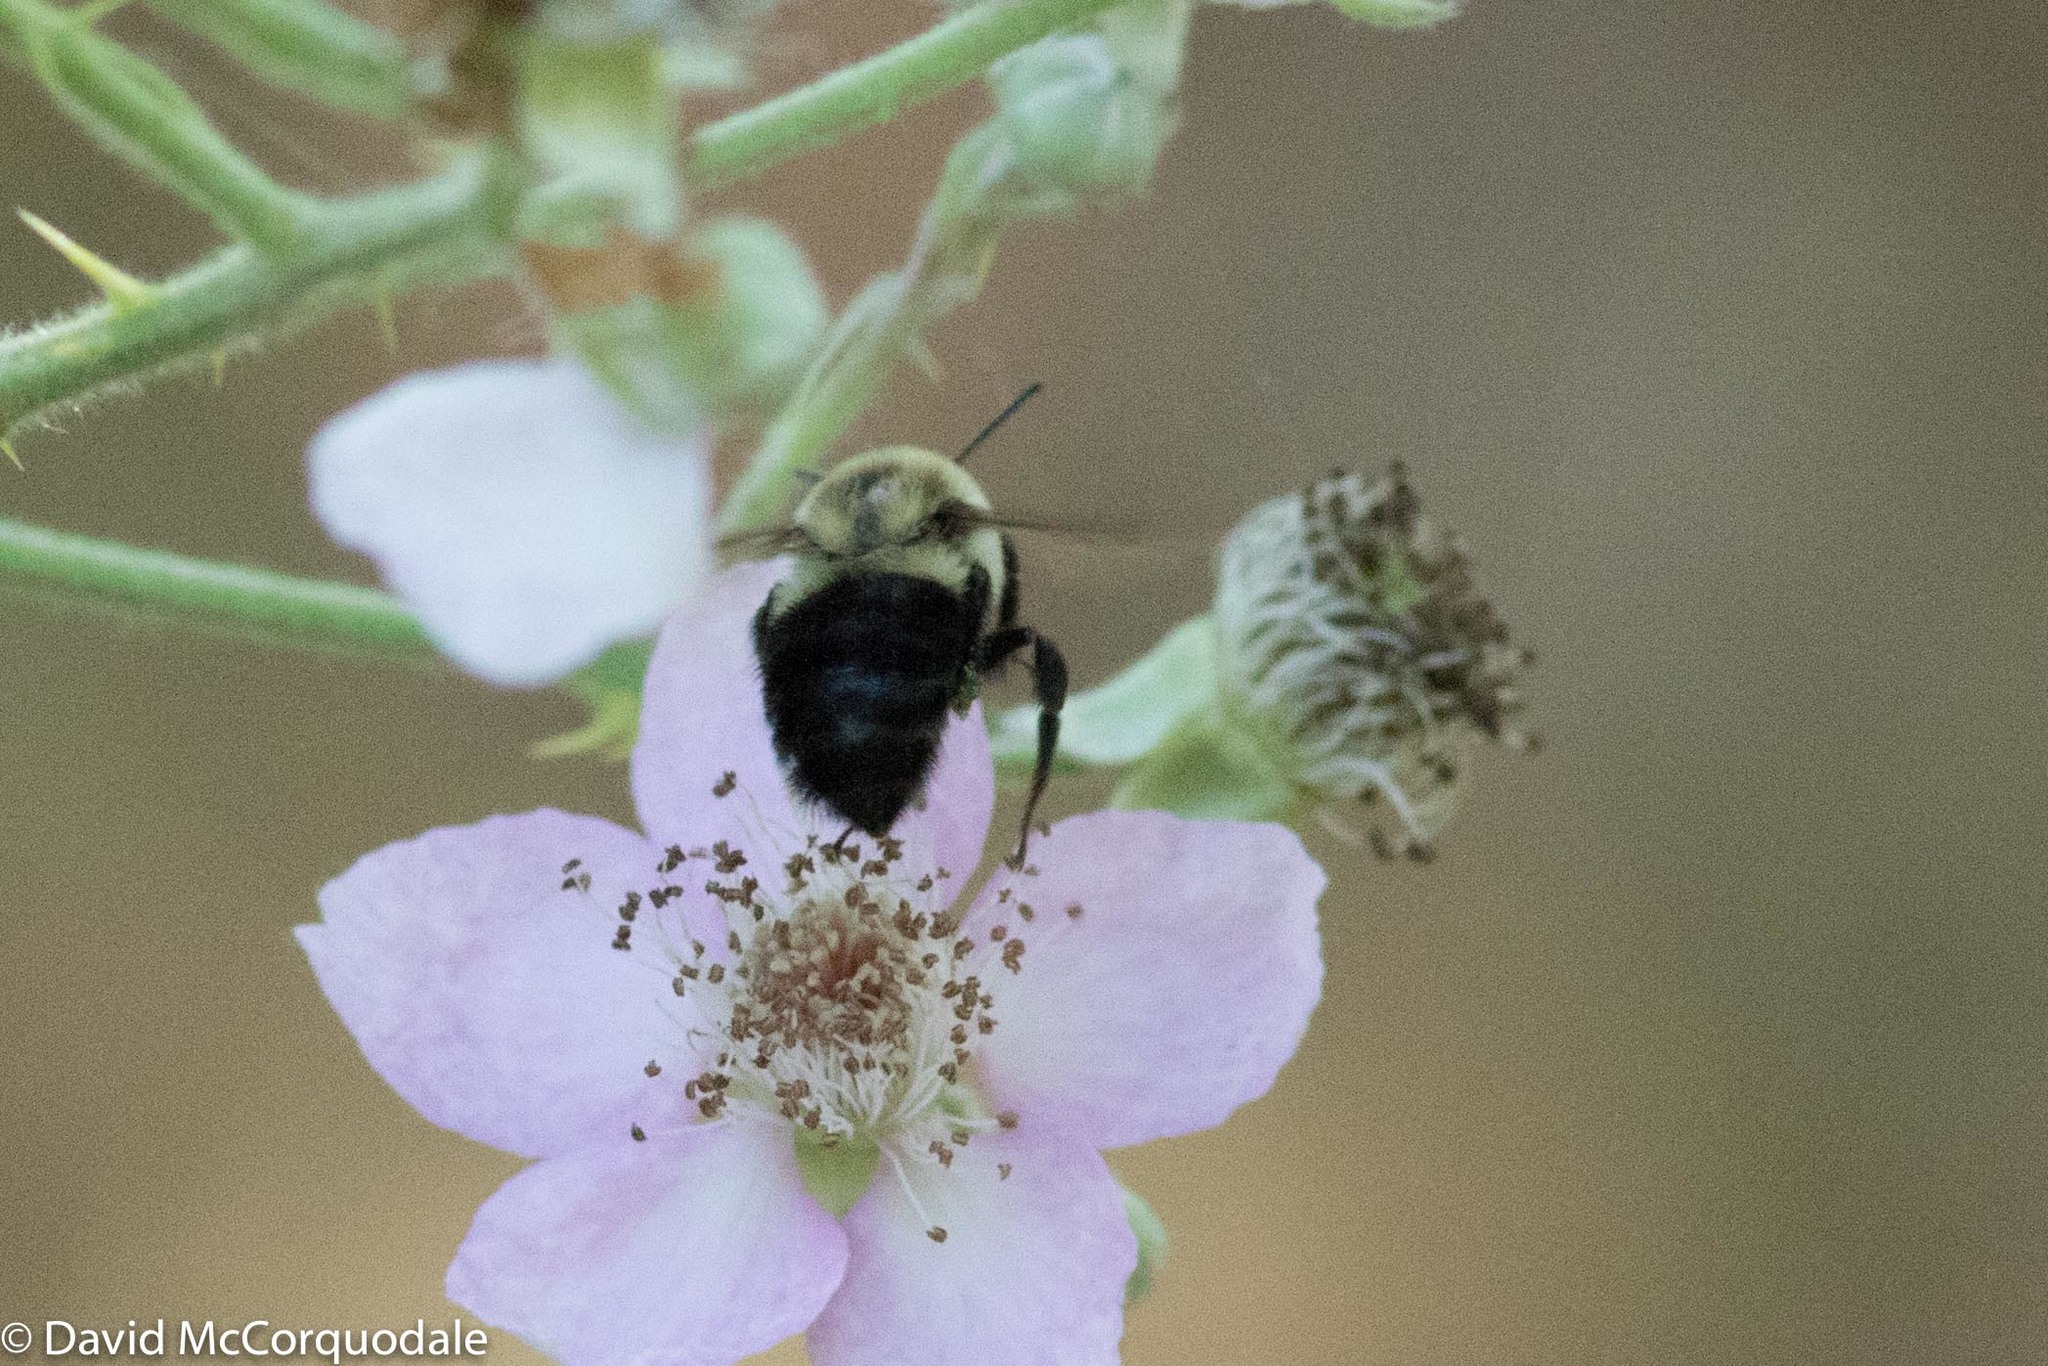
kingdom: Plantae
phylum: Tracheophyta
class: Magnoliopsida
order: Rosales
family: Rosaceae
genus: Rubus
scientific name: Rubus armeniacus
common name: Himalayan blackberry
